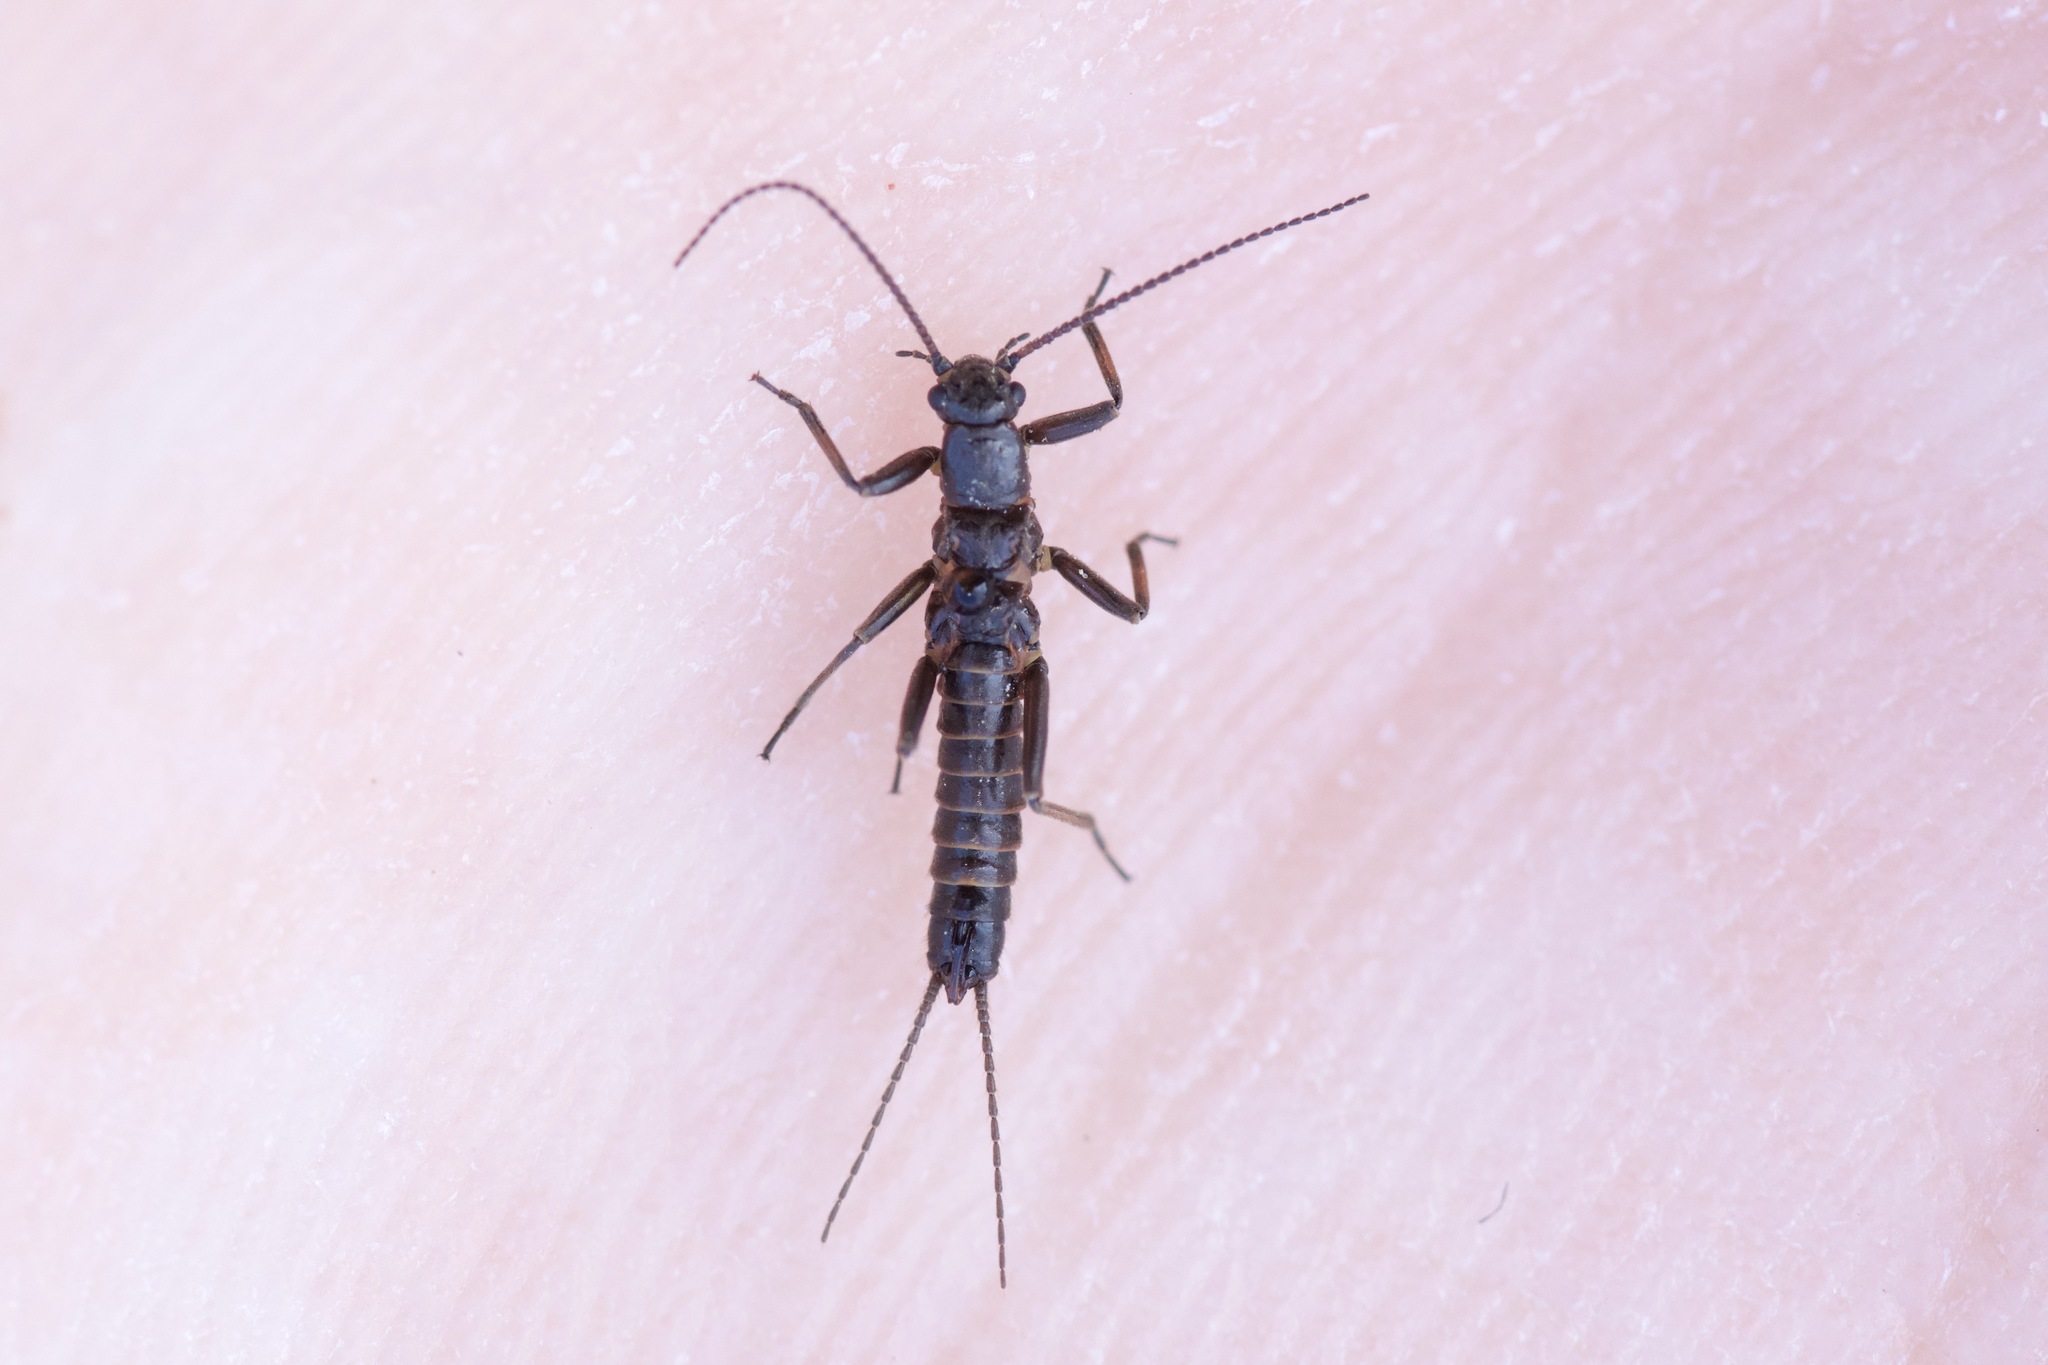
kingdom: Animalia
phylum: Arthropoda
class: Insecta
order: Plecoptera
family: Capniidae
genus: Allocapnia
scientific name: Allocapnia pygmaea
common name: Pygmy snowfly
